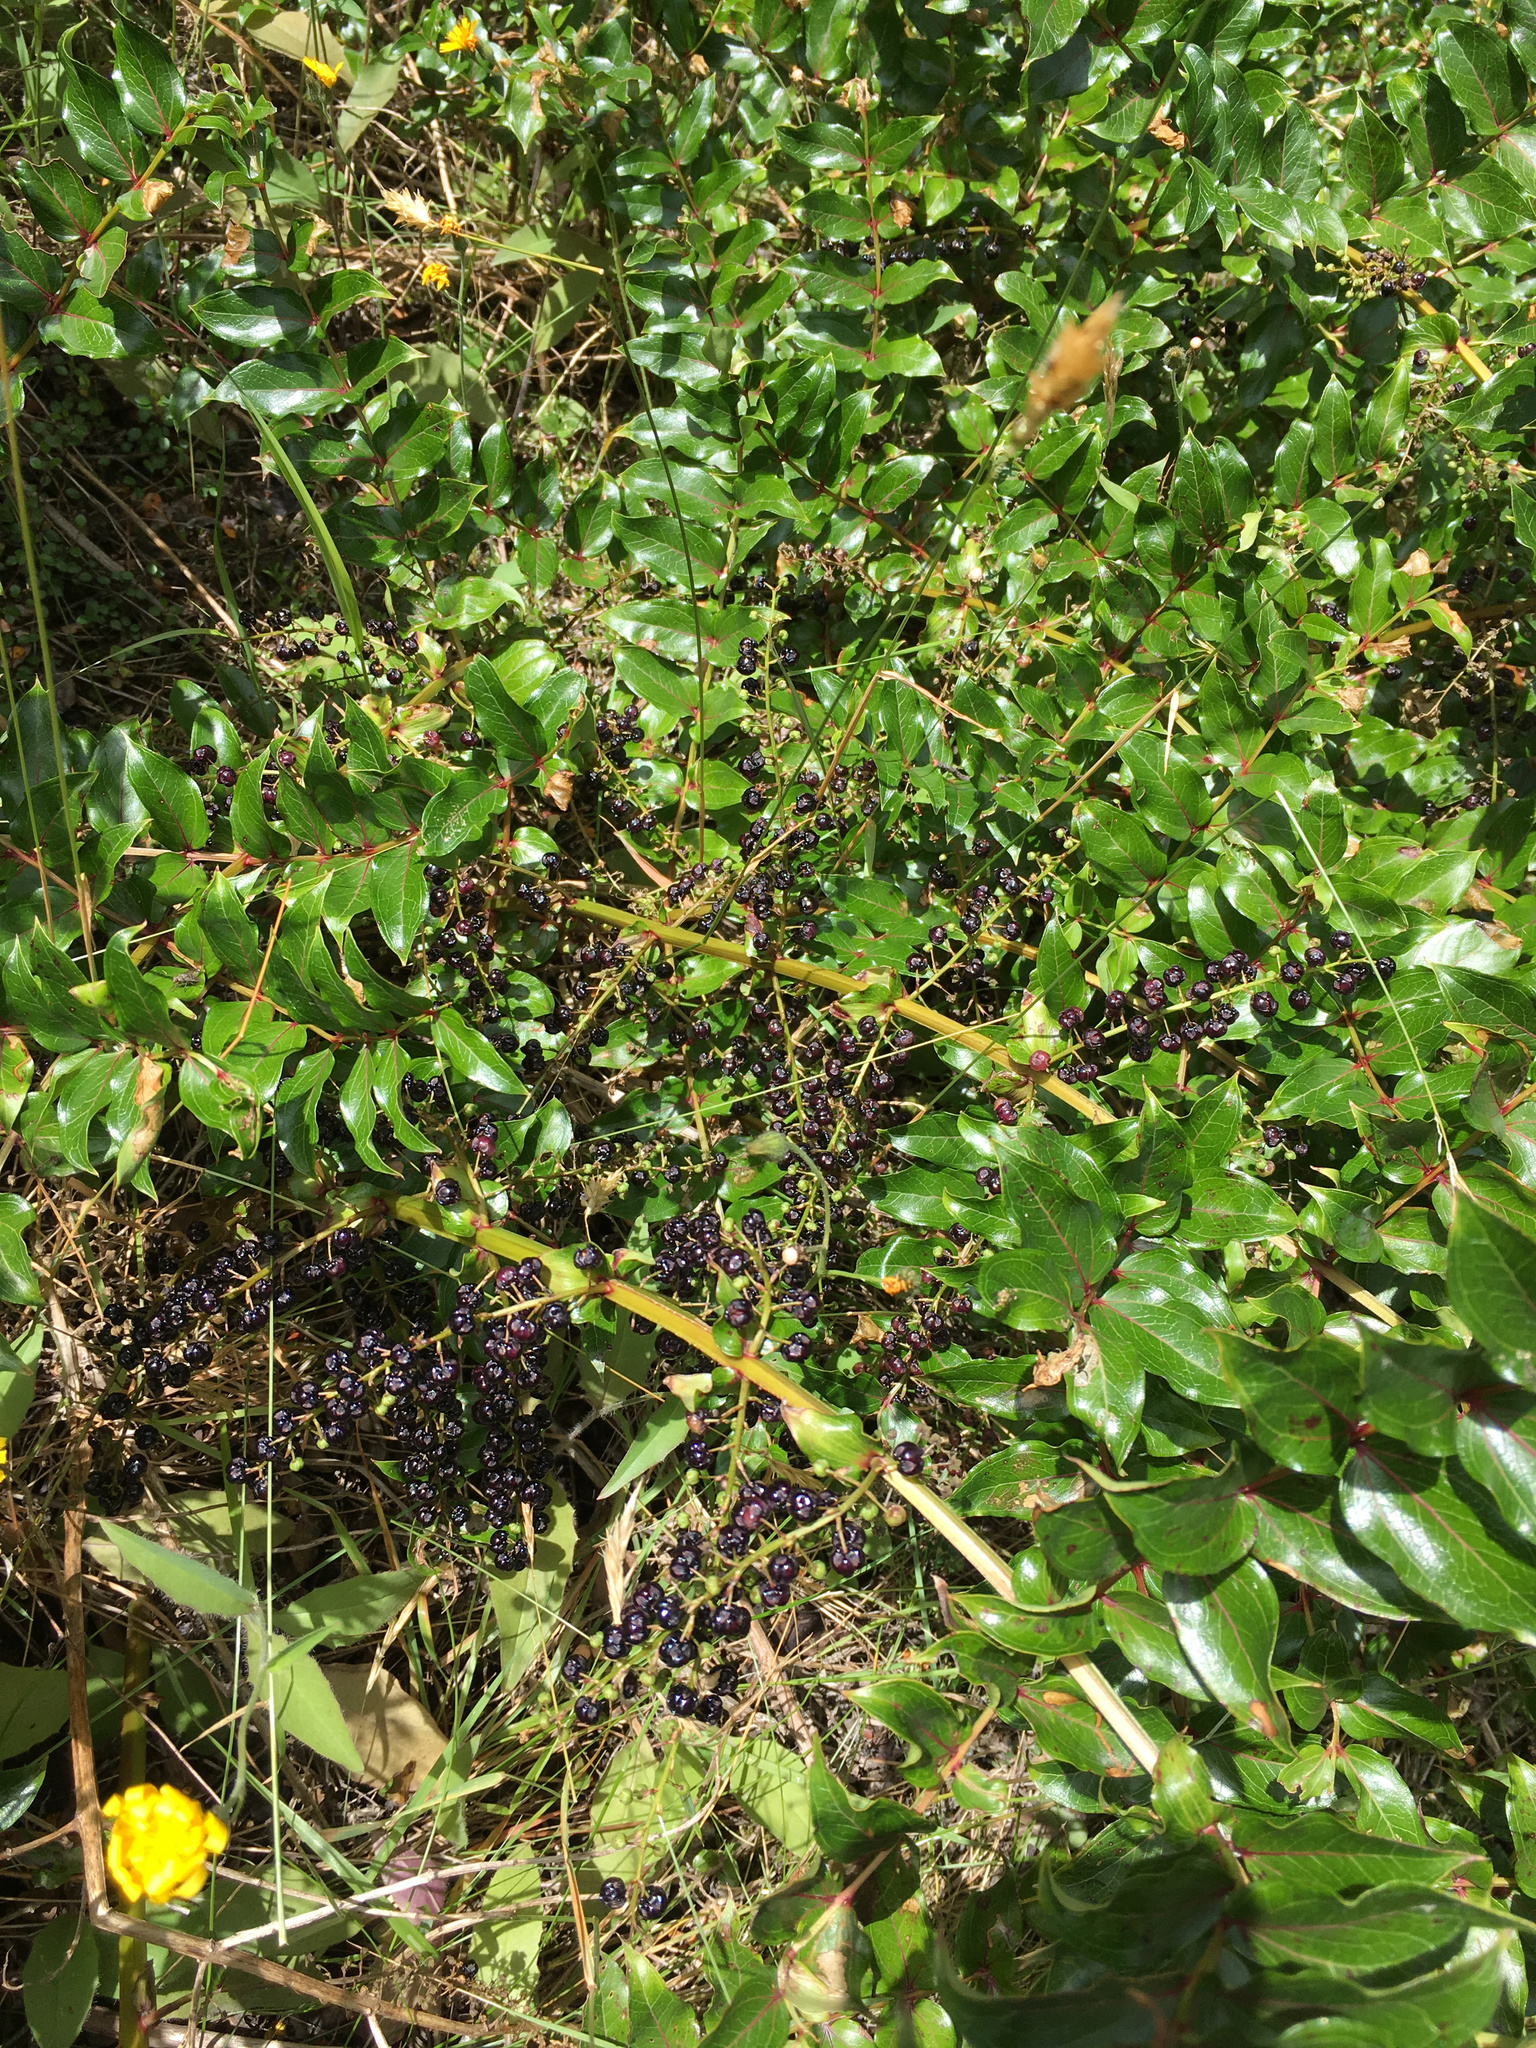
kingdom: Plantae
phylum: Tracheophyta
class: Magnoliopsida
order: Cucurbitales
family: Coriariaceae
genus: Coriaria
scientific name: Coriaria arborea
